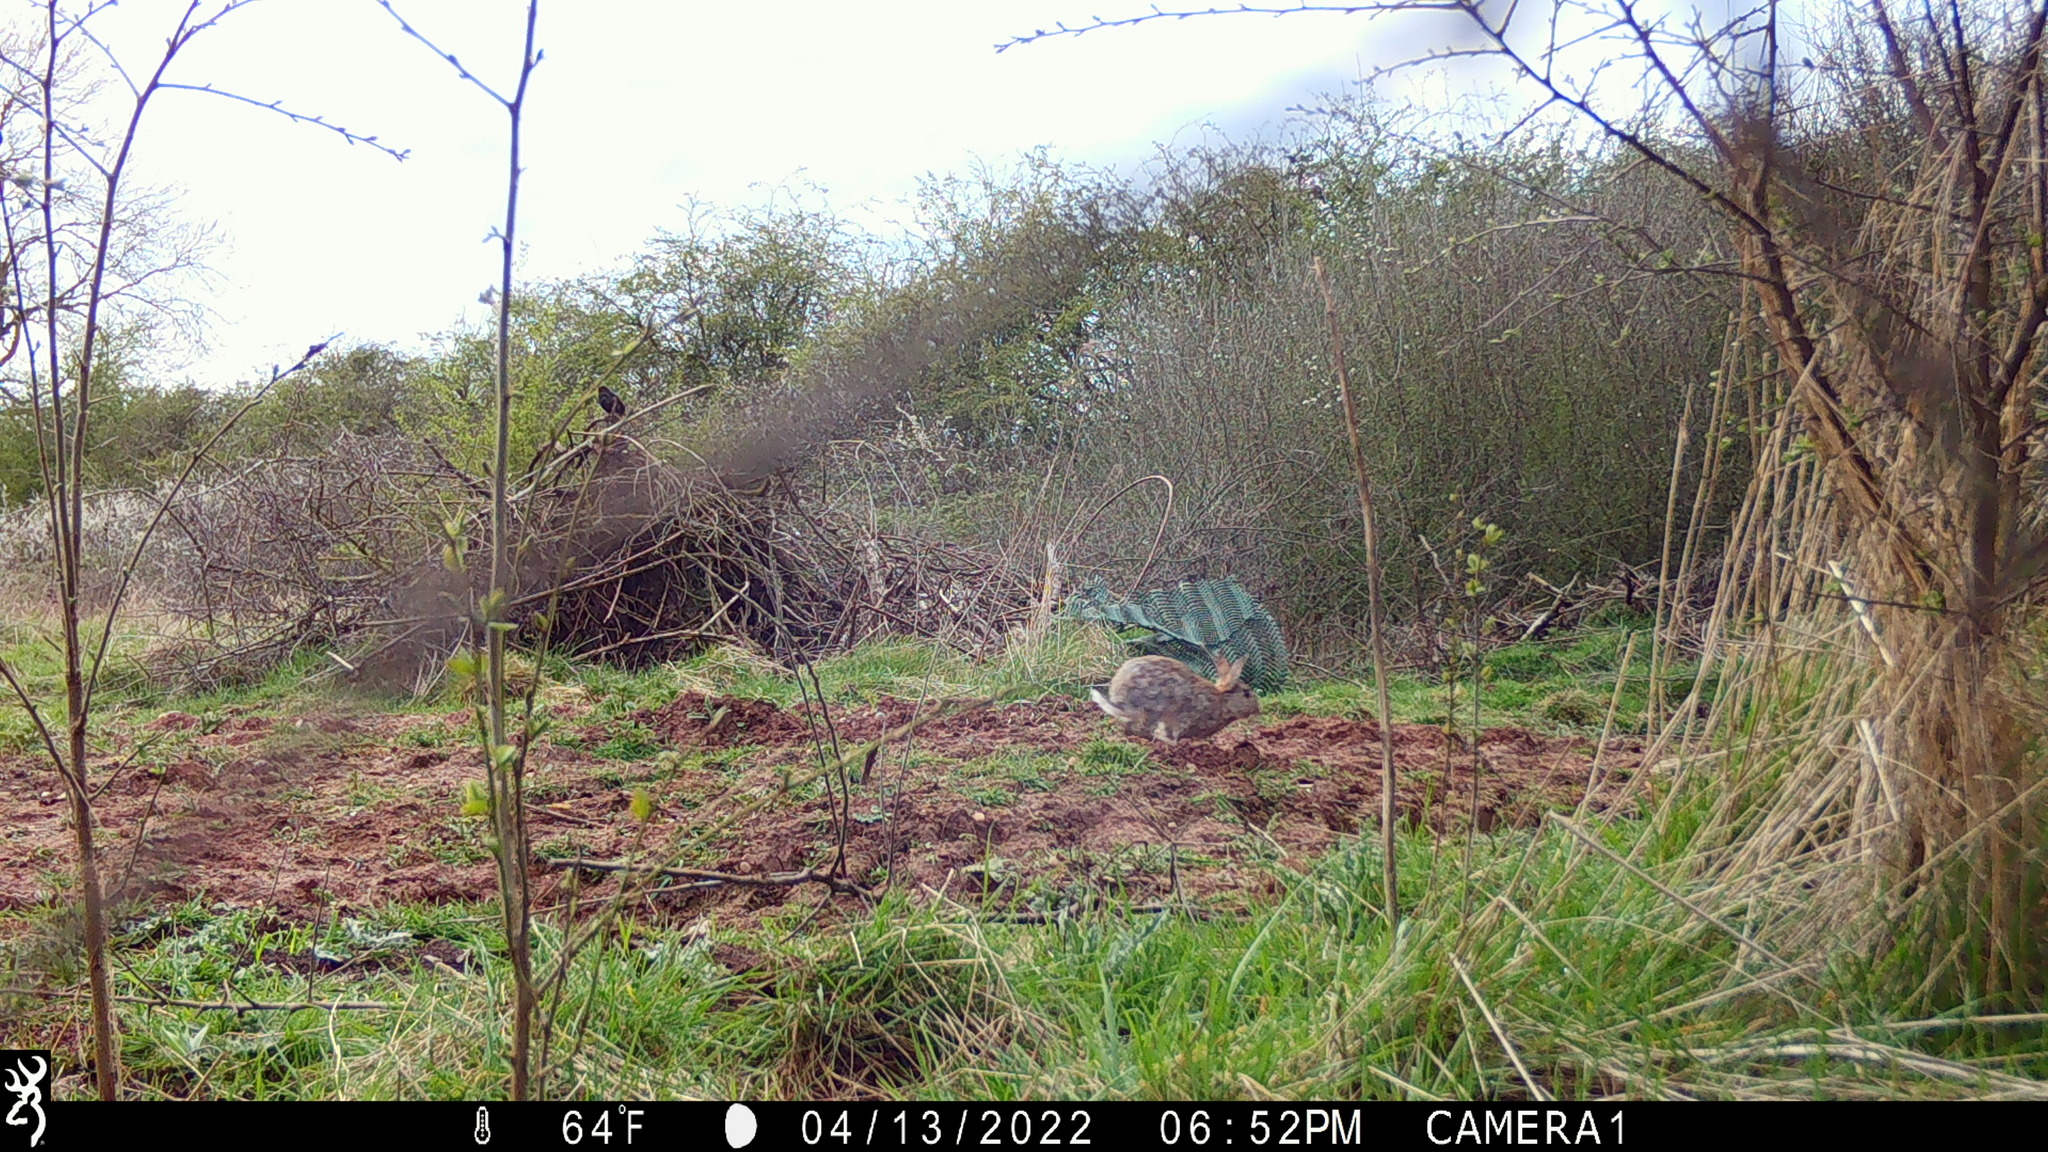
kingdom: Animalia
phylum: Chordata
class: Mammalia
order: Lagomorpha
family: Leporidae
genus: Oryctolagus
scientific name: Oryctolagus cuniculus
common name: European rabbit
